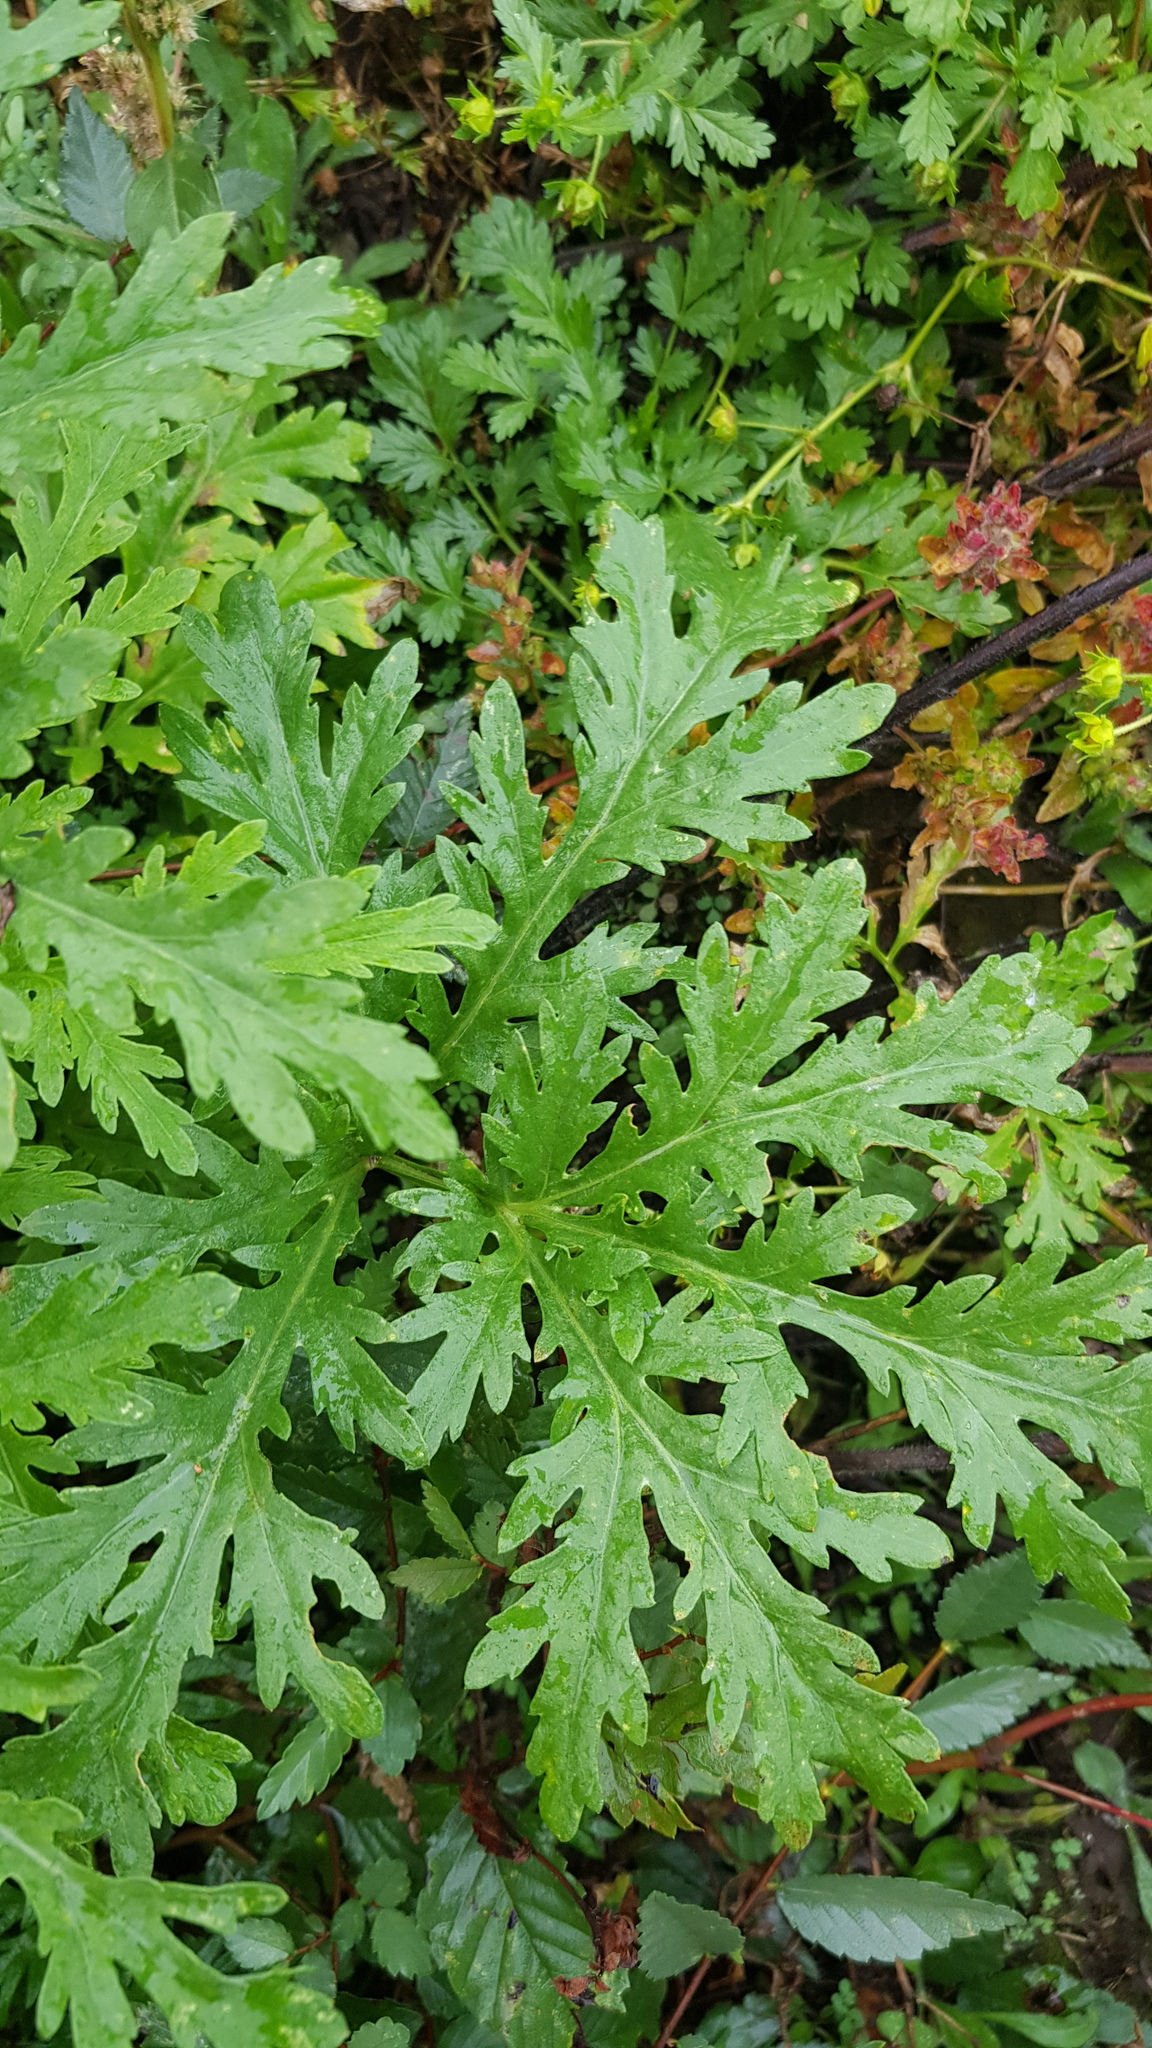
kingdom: Plantae
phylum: Tracheophyta
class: Magnoliopsida
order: Rosales
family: Urticaceae
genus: Urtica
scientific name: Urtica cannabina
